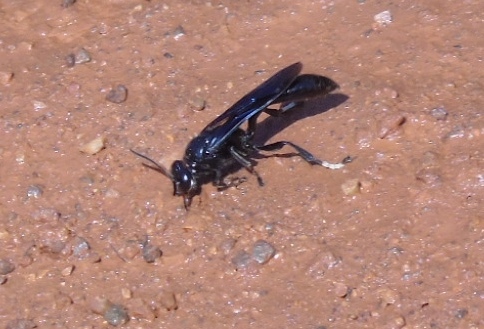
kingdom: Animalia
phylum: Arthropoda
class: Insecta
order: Hymenoptera
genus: Trypargilum
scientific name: Trypargilum
